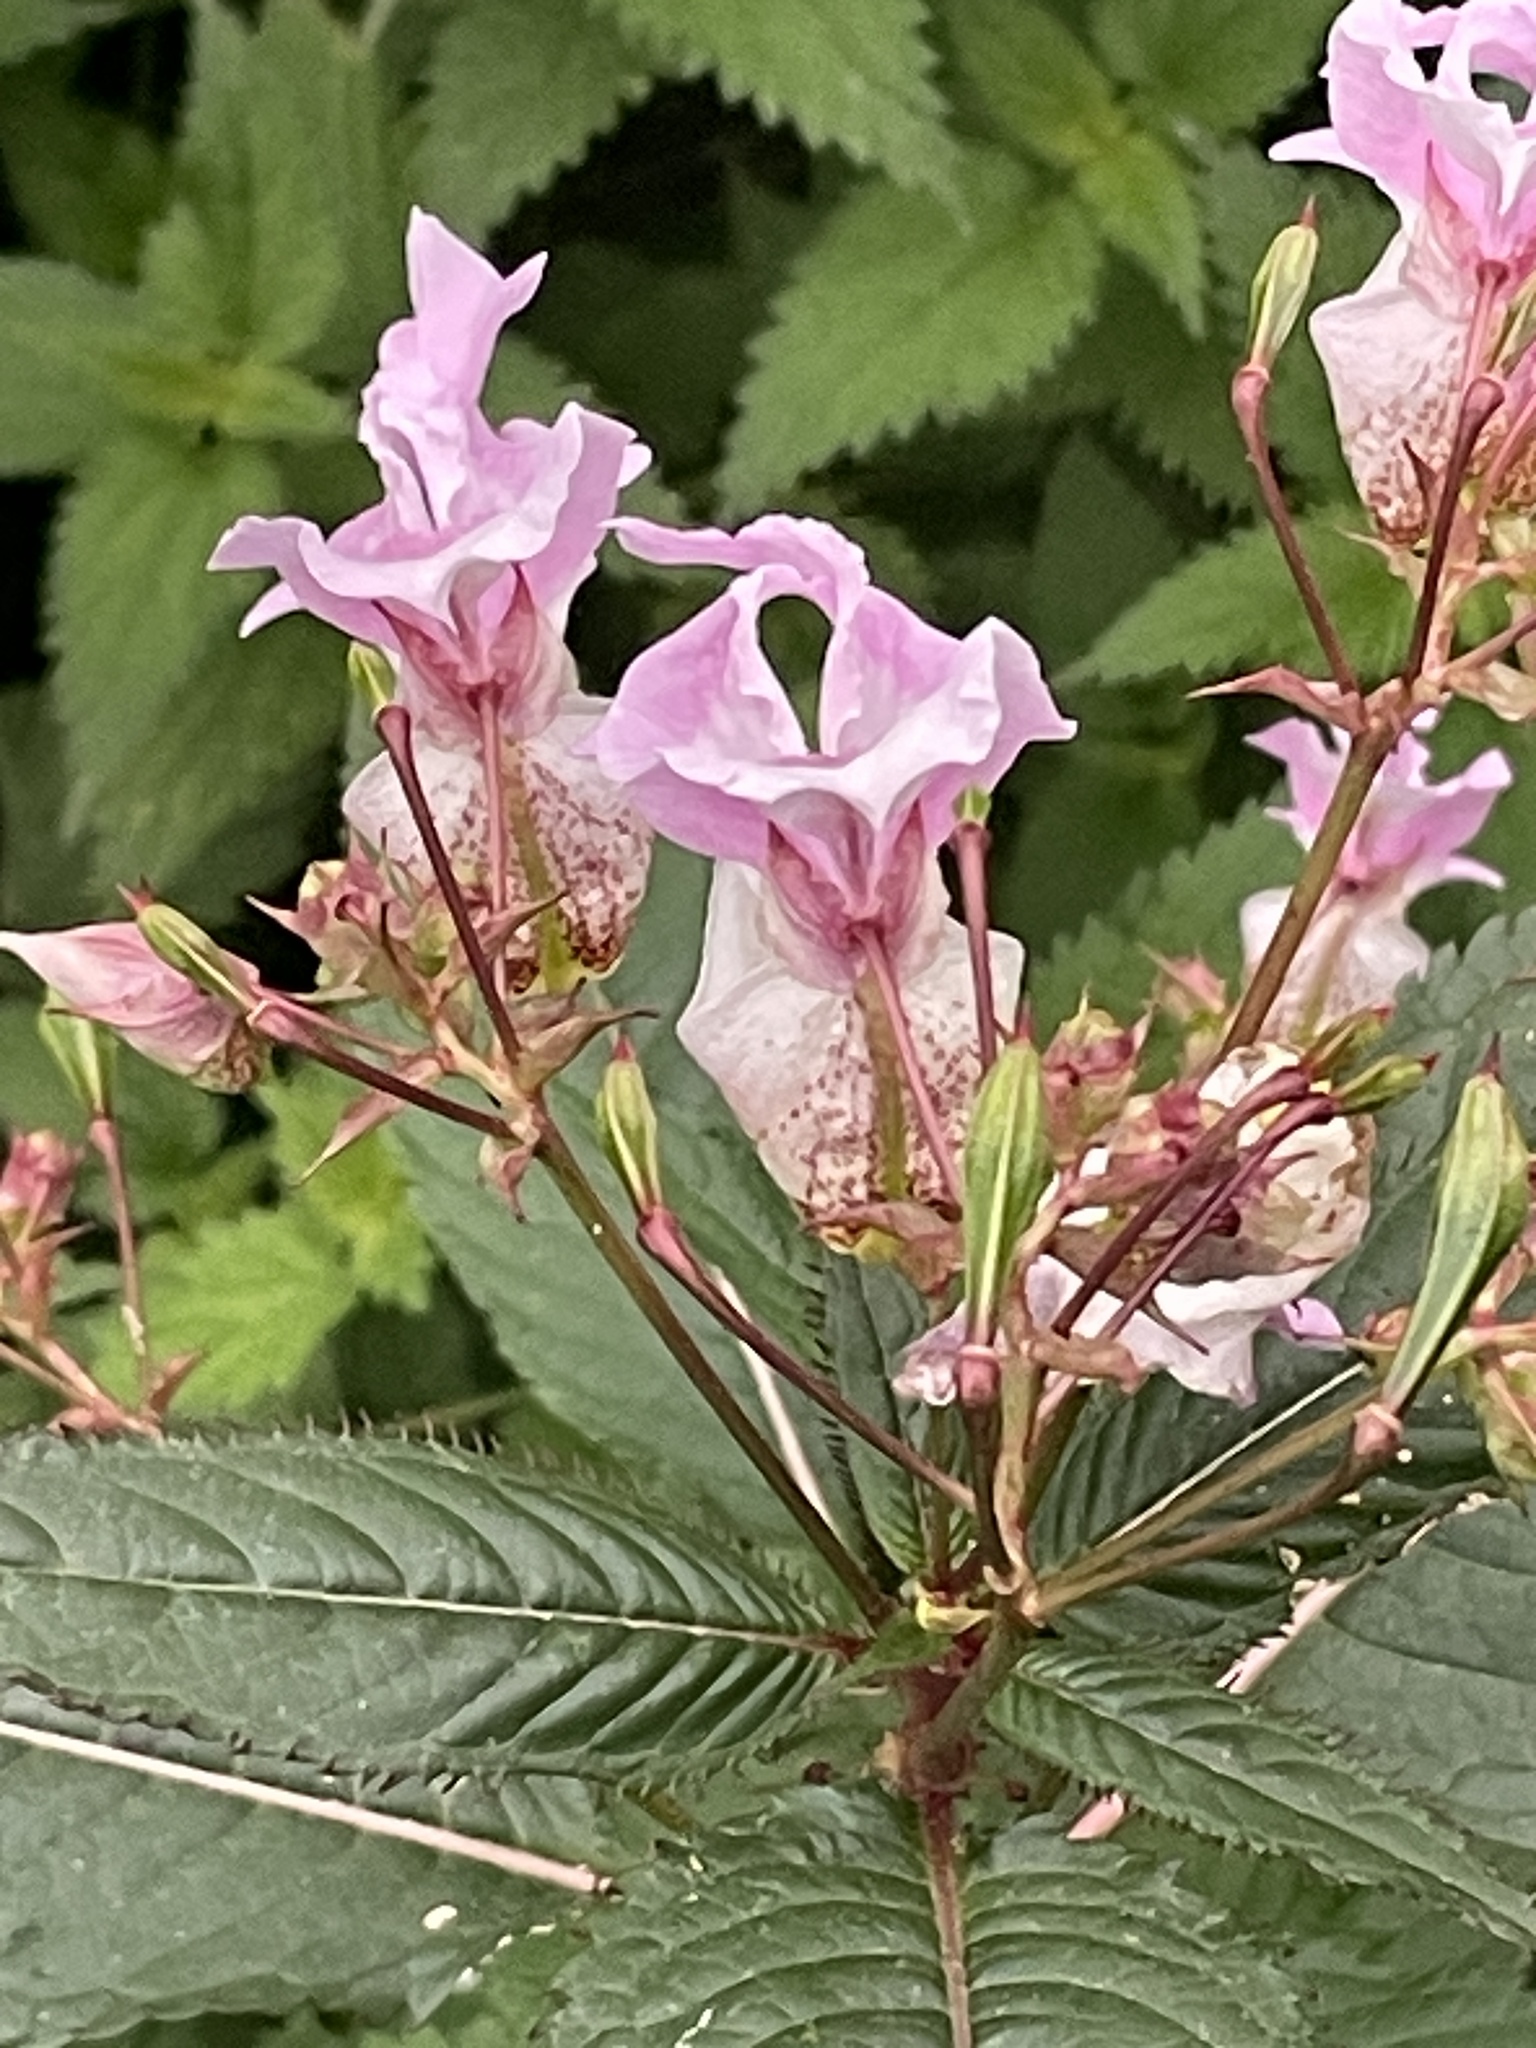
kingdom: Plantae
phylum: Tracheophyta
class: Magnoliopsida
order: Ericales
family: Balsaminaceae
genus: Impatiens
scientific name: Impatiens glandulifera
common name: Himalayan balsam
